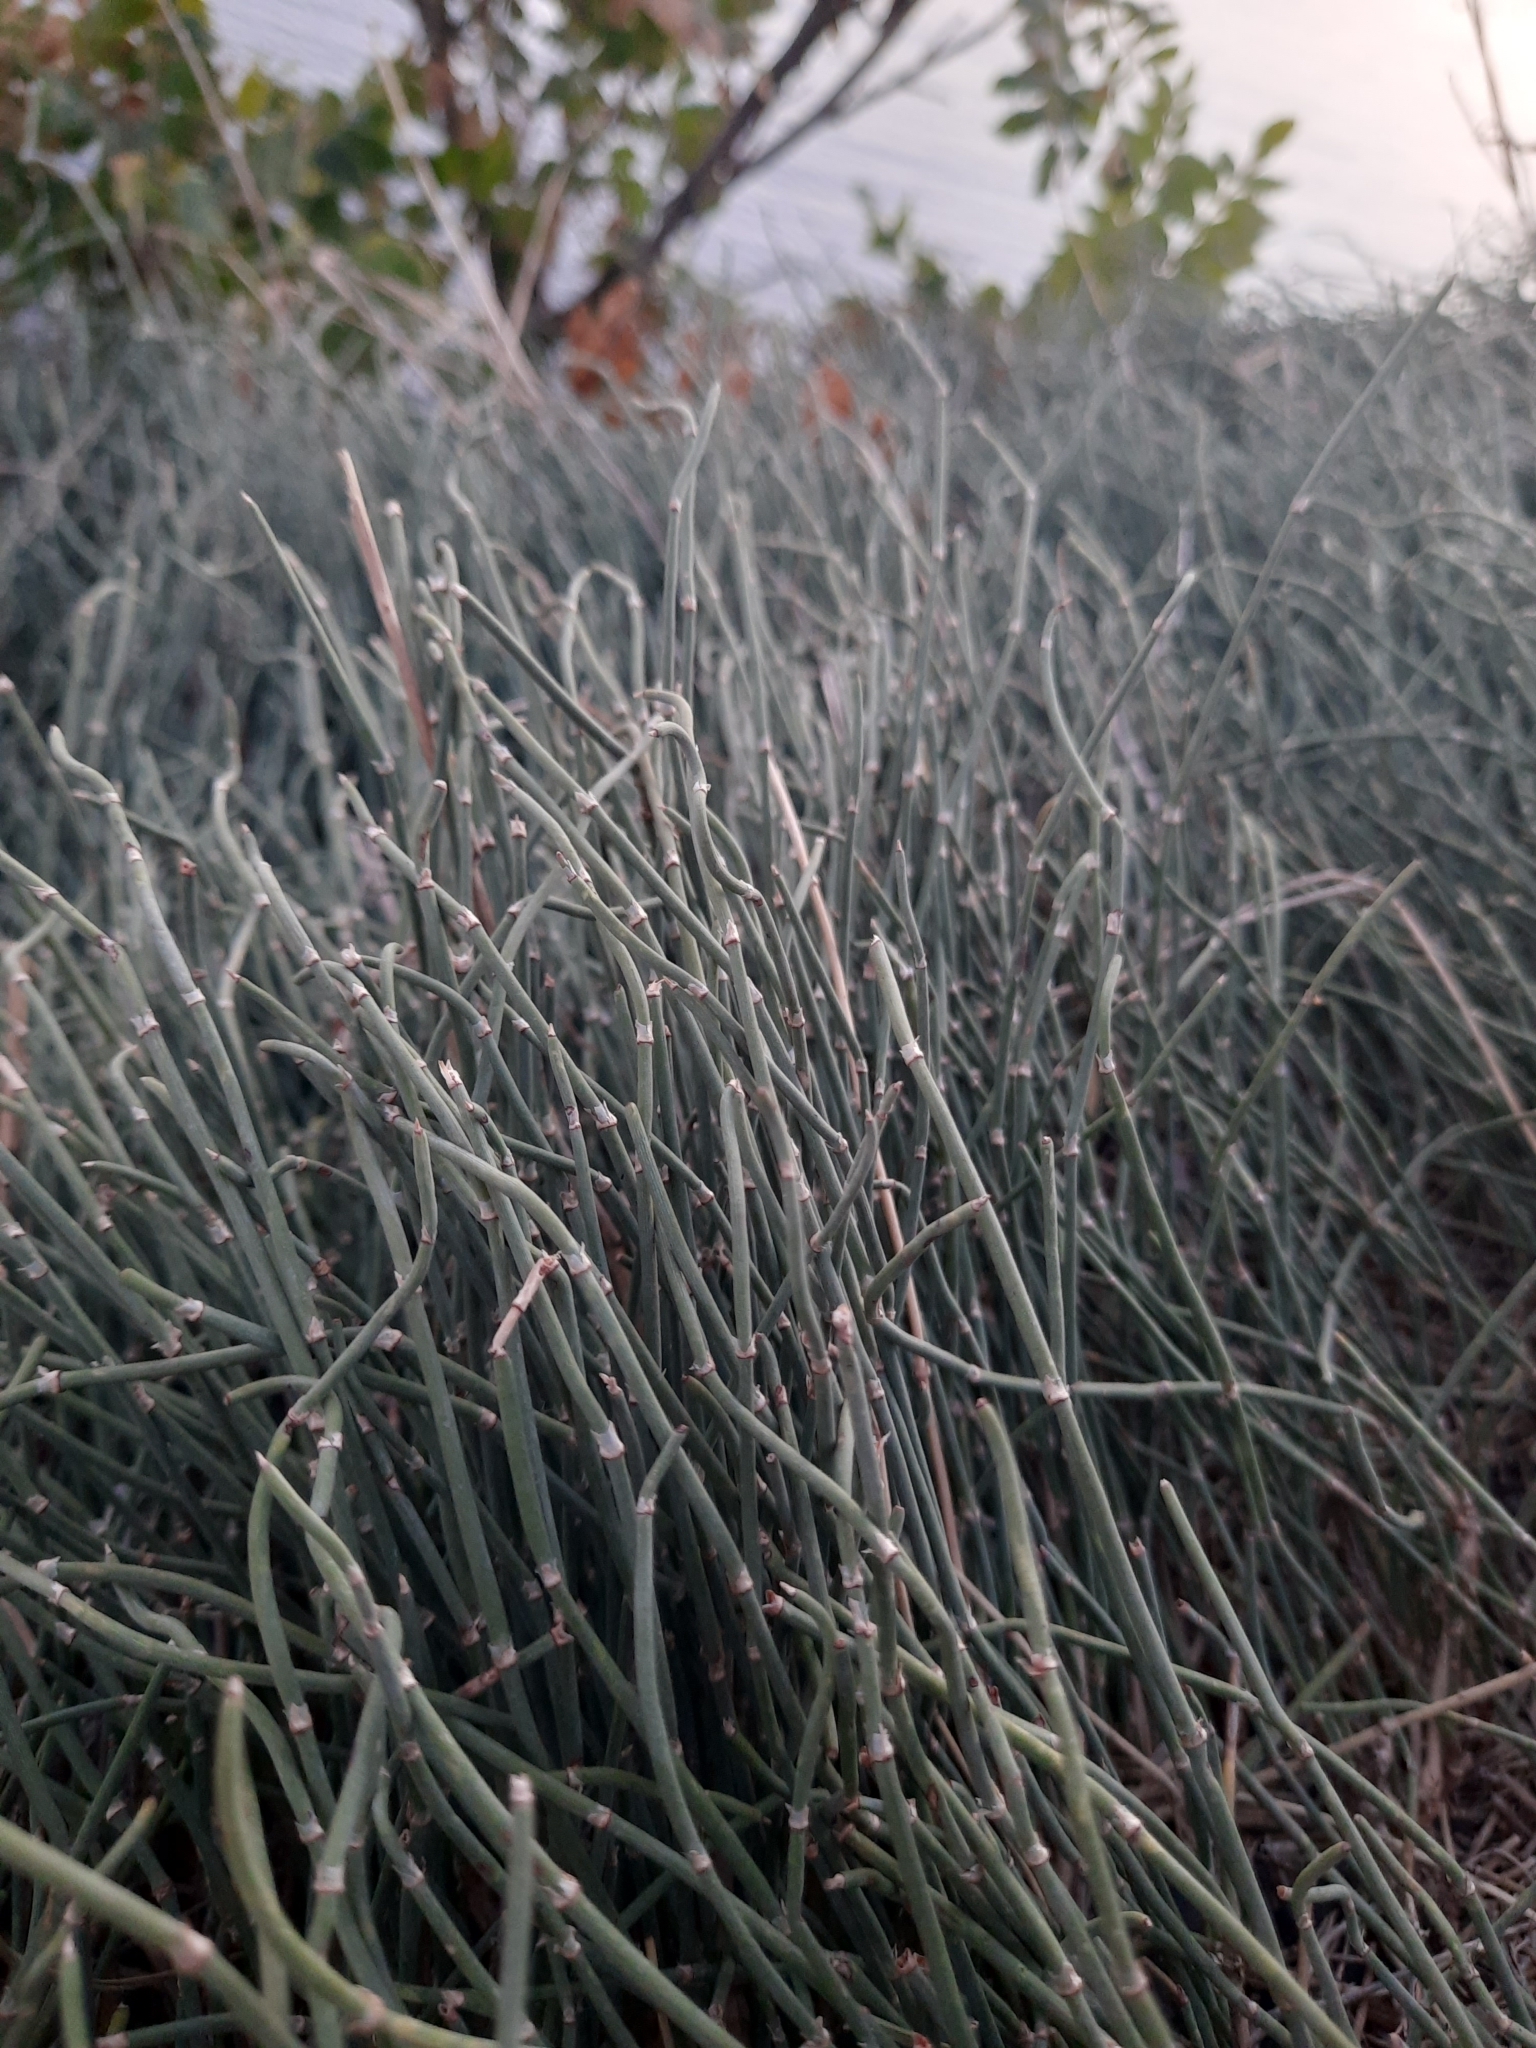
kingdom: Plantae
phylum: Tracheophyta
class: Gnetopsida
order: Ephedrales
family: Ephedraceae
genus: Ephedra
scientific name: Ephedra distachya
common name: Sea grape
